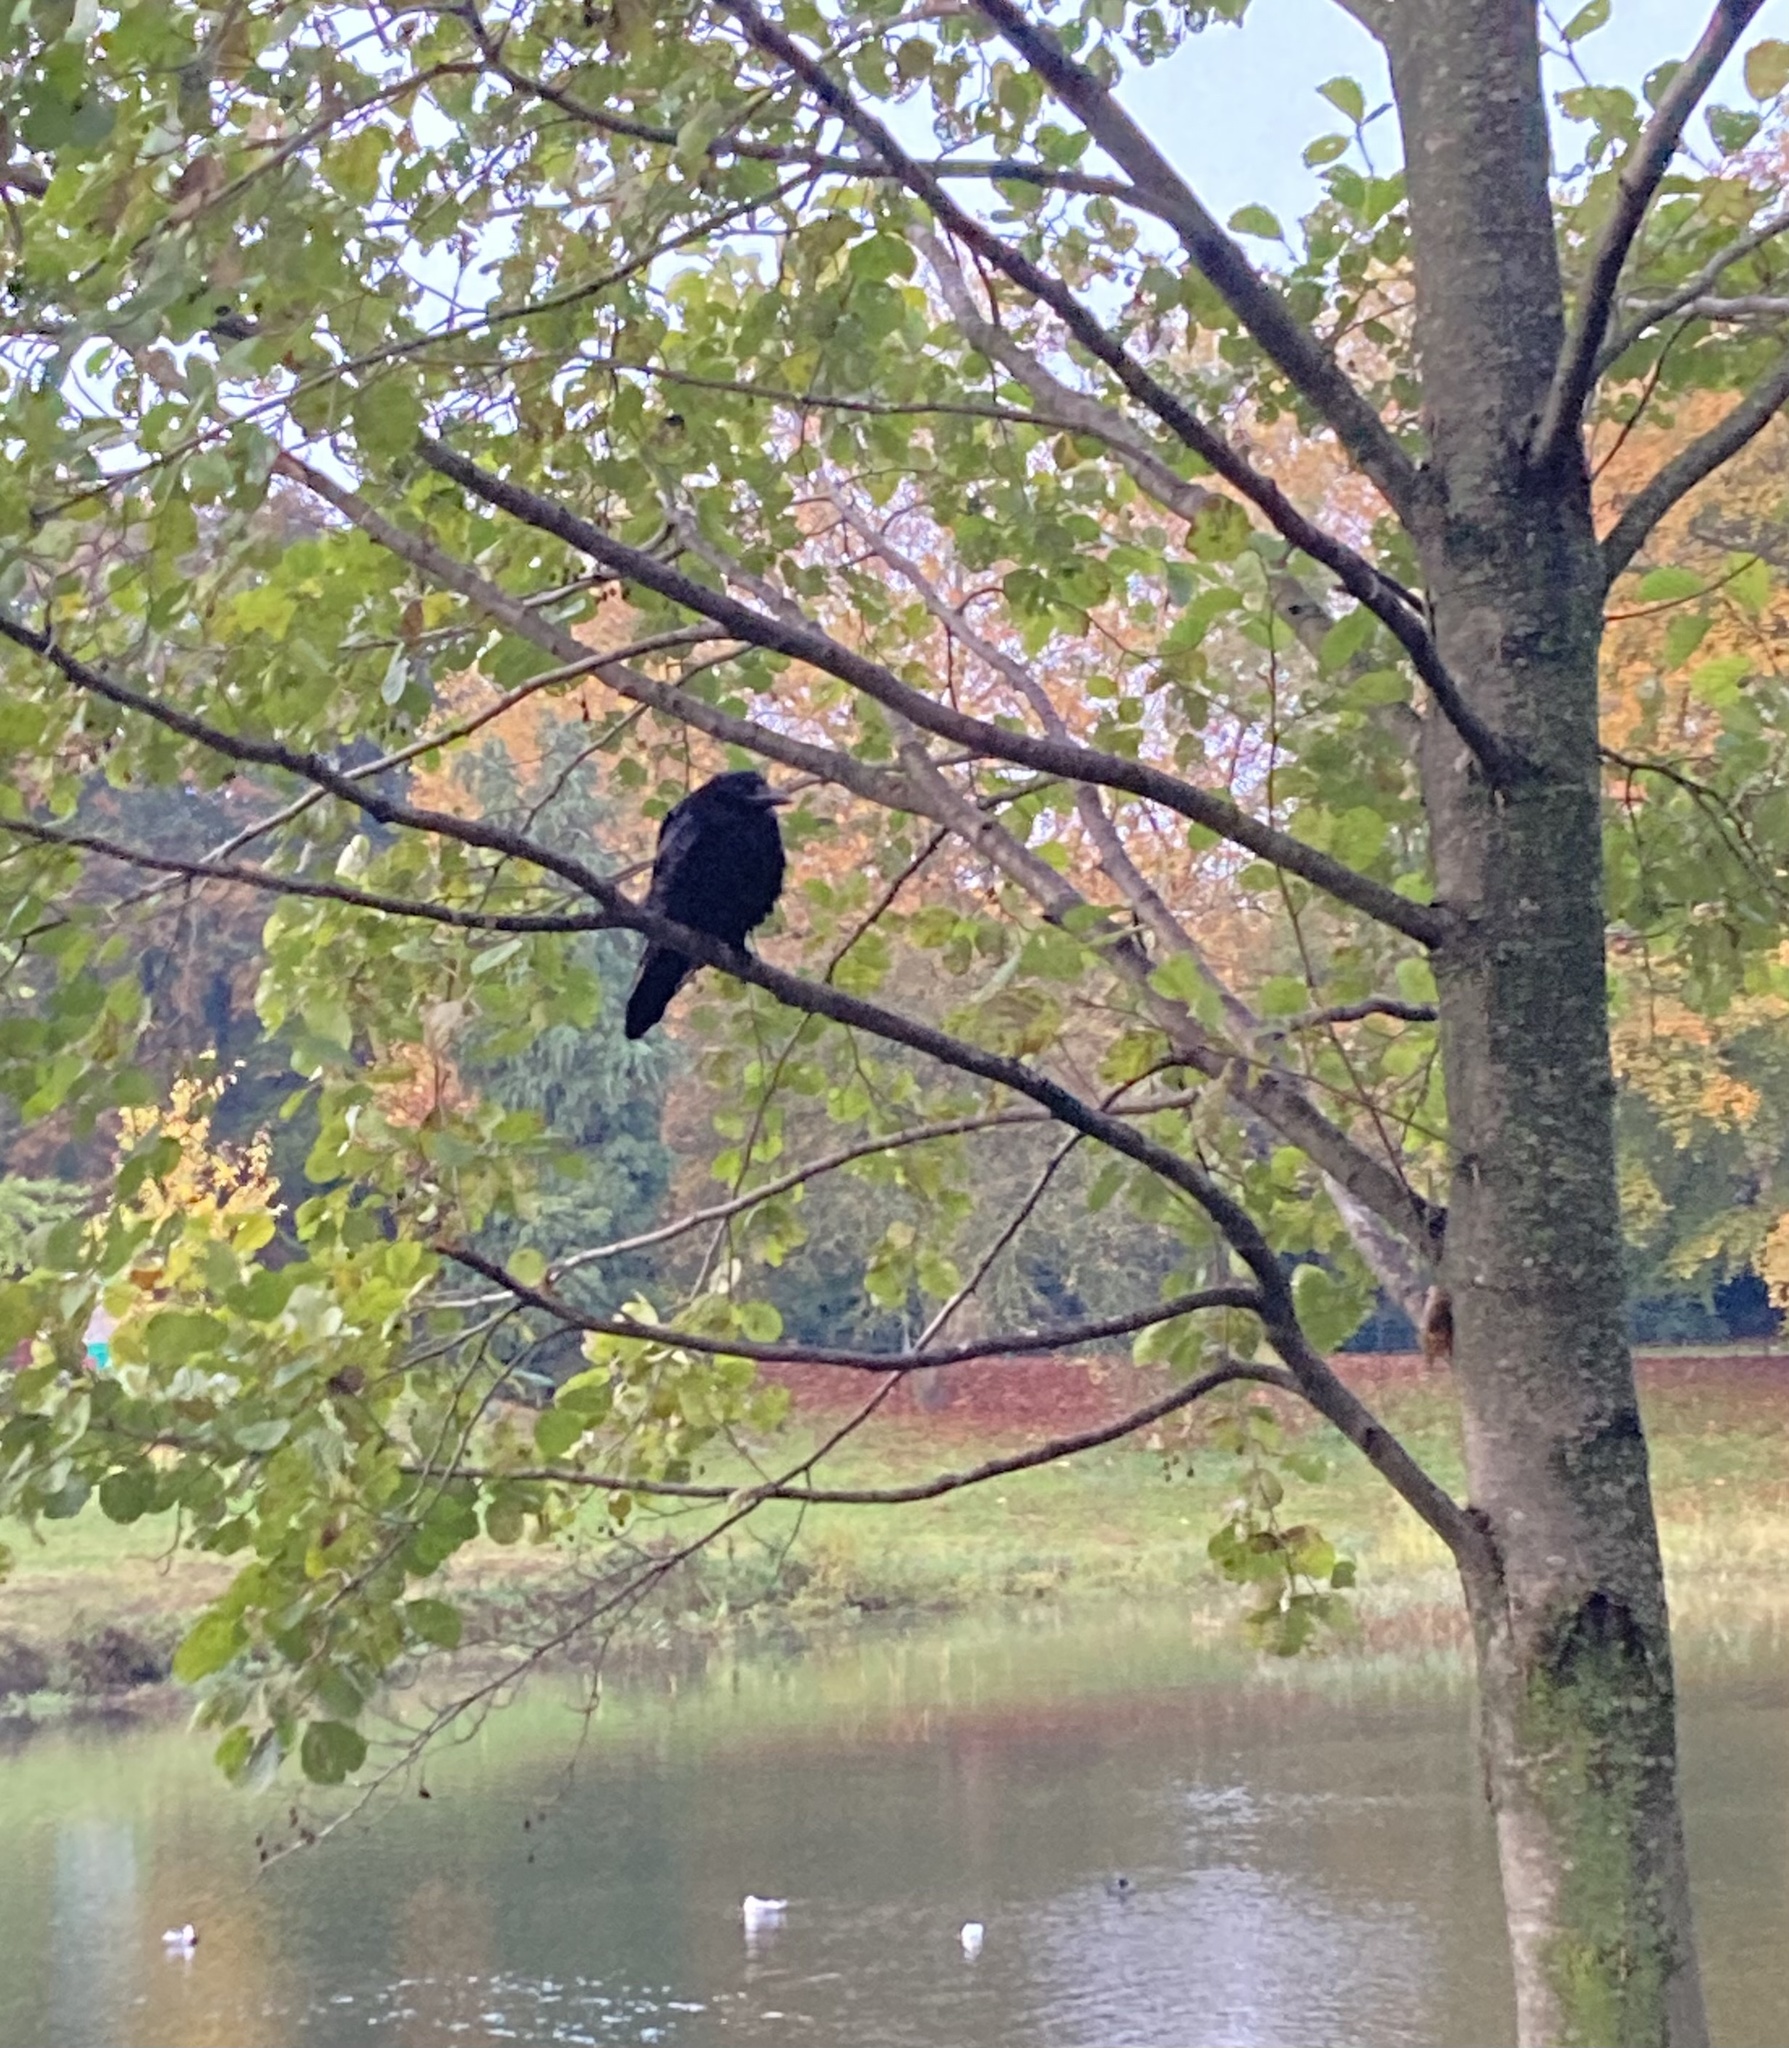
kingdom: Animalia
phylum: Chordata
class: Aves
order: Passeriformes
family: Corvidae
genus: Corvus
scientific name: Corvus corone
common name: Carrion crow
